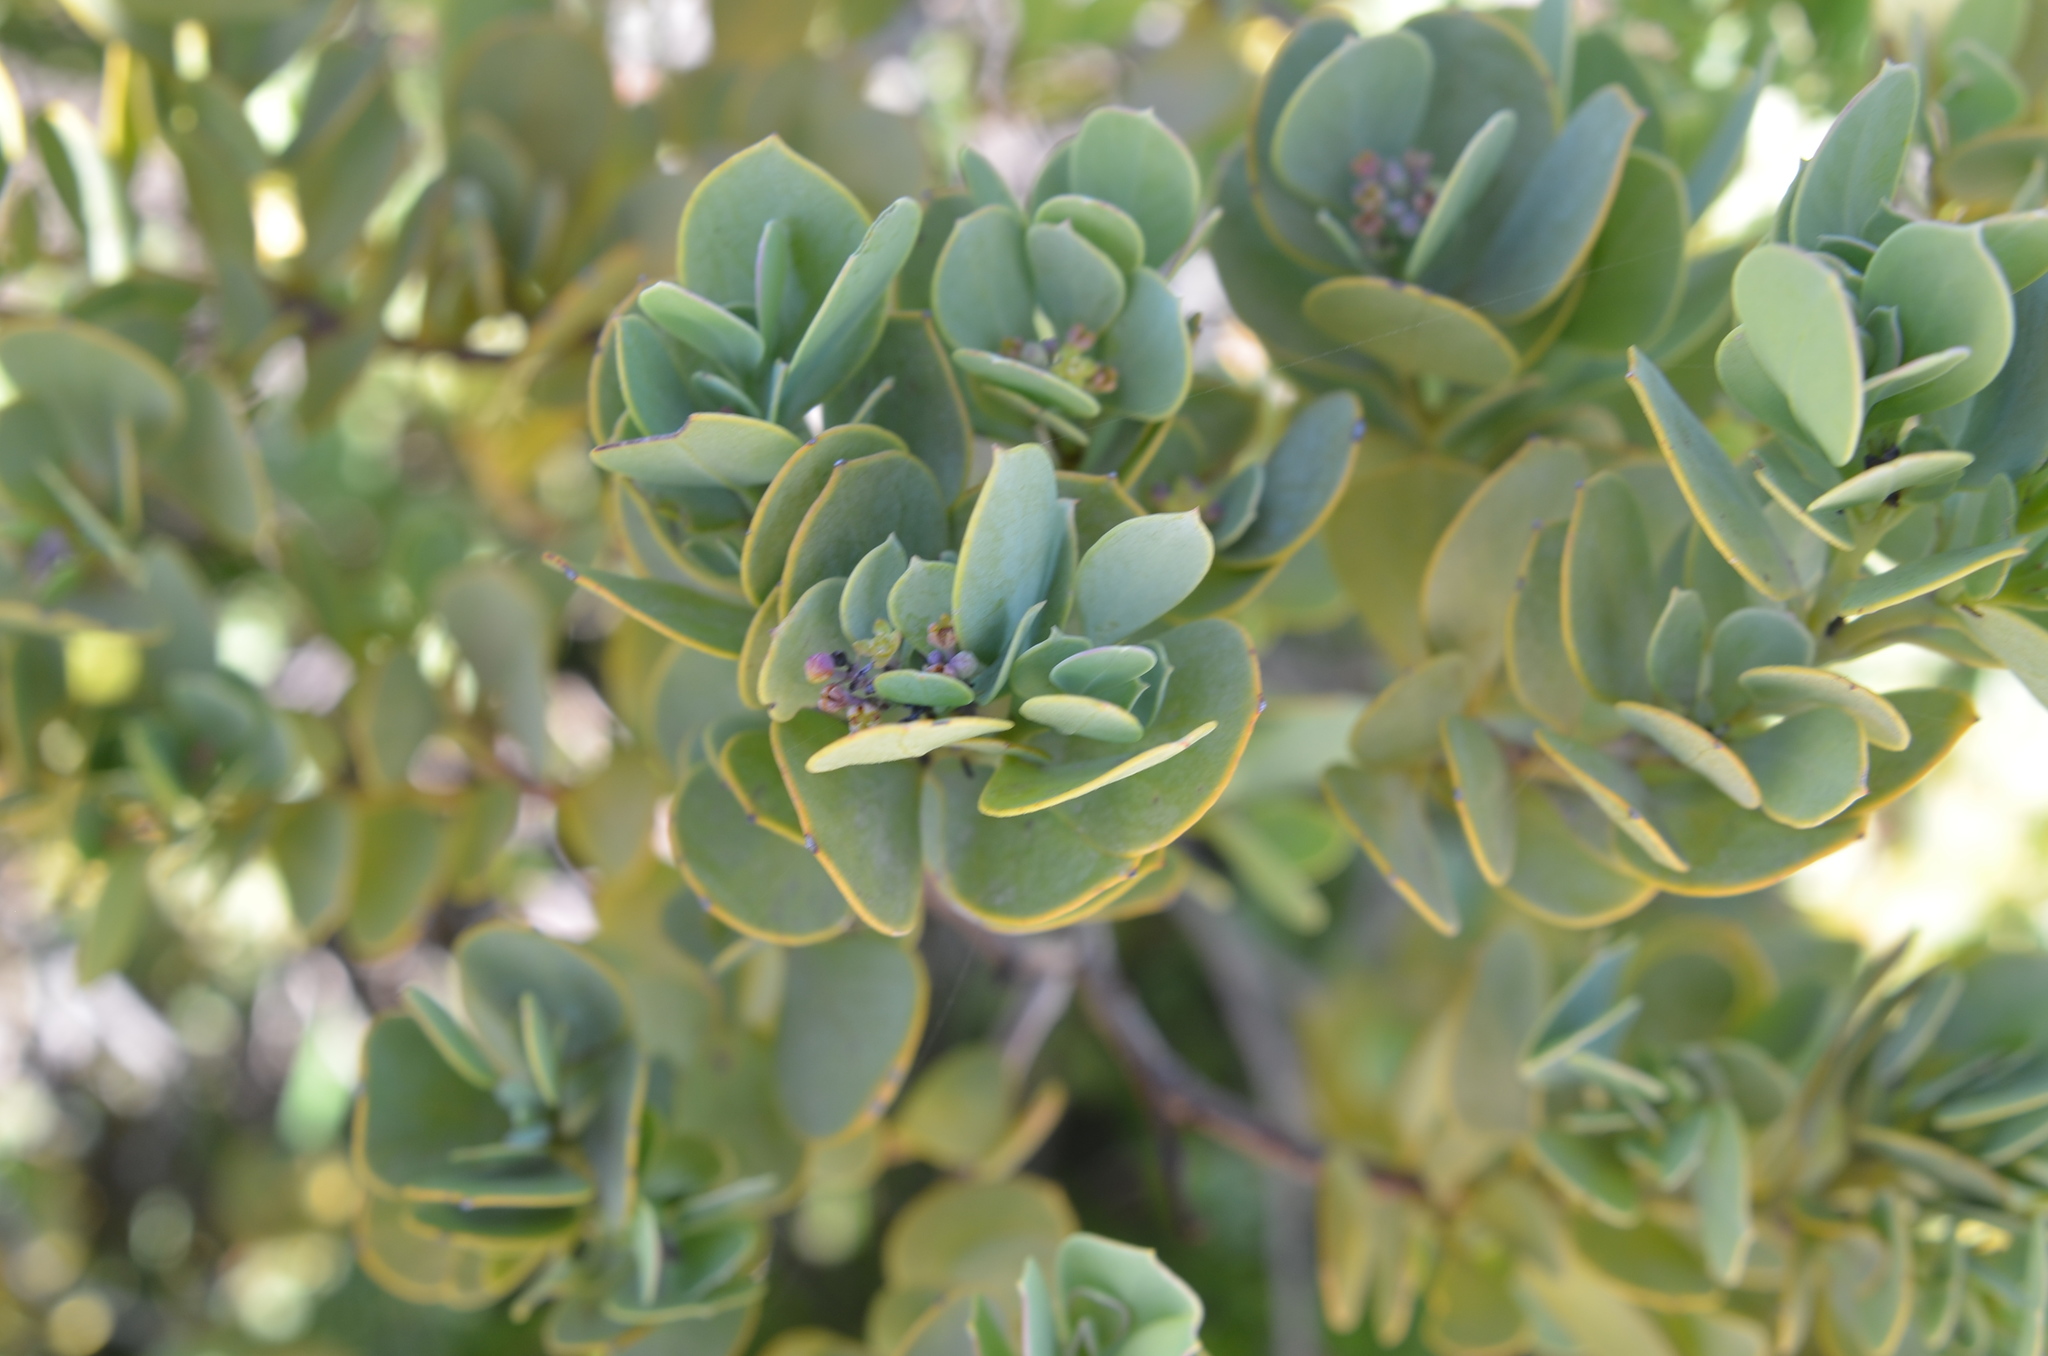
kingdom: Plantae
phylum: Tracheophyta
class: Magnoliopsida
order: Santalales
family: Santalaceae
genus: Osyris
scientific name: Osyris compressa
